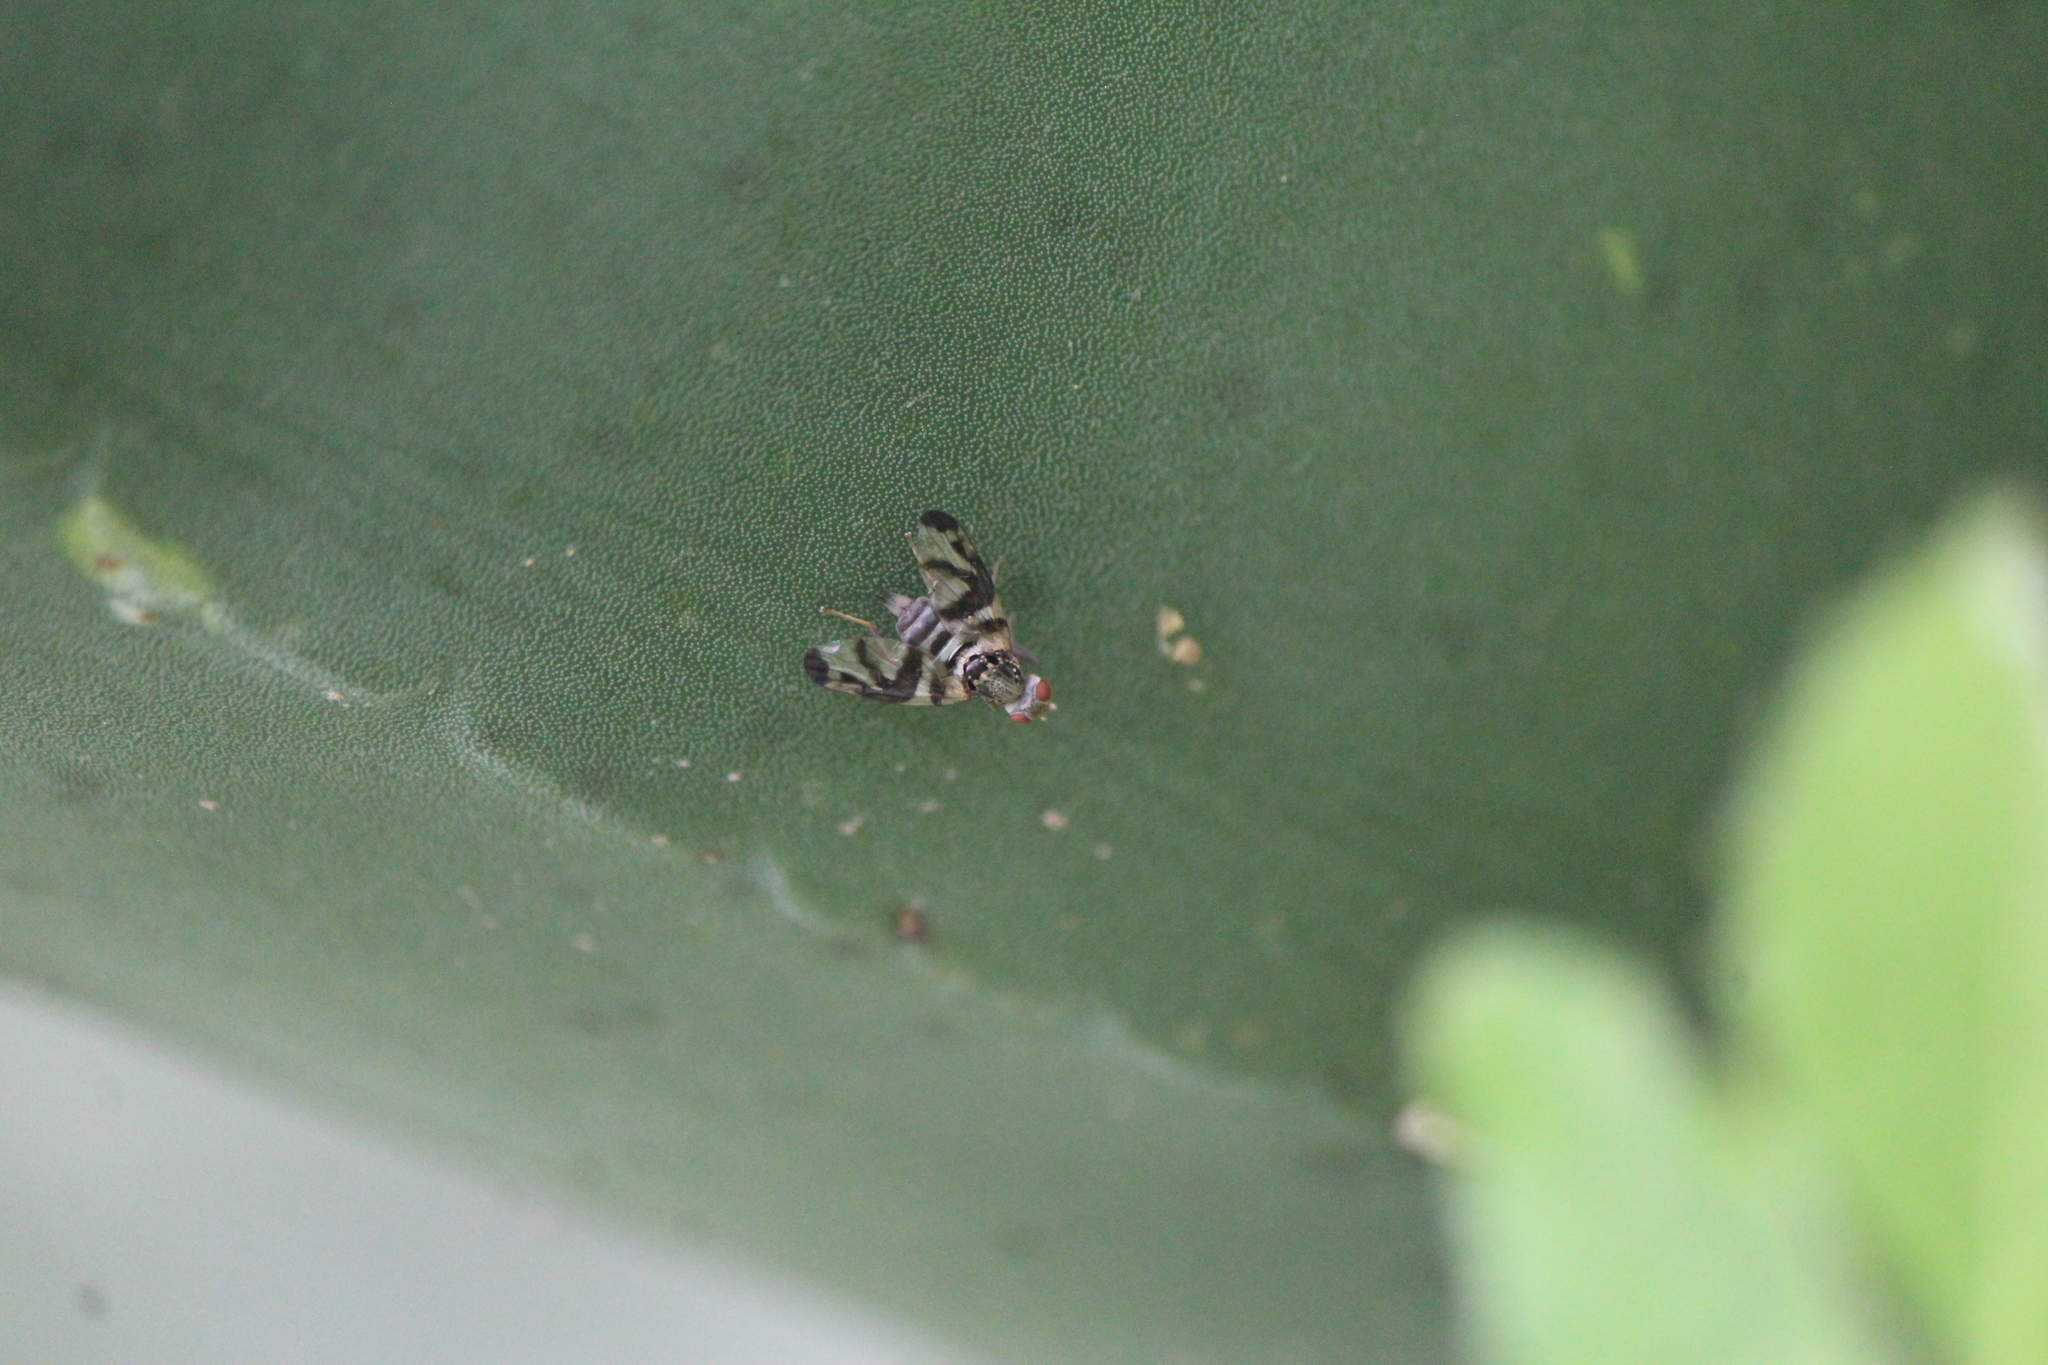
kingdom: Animalia
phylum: Arthropoda
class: Insecta
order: Diptera
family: Ulidiidae
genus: Pseudodyscrasis
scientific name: Pseudodyscrasis scutellaris
